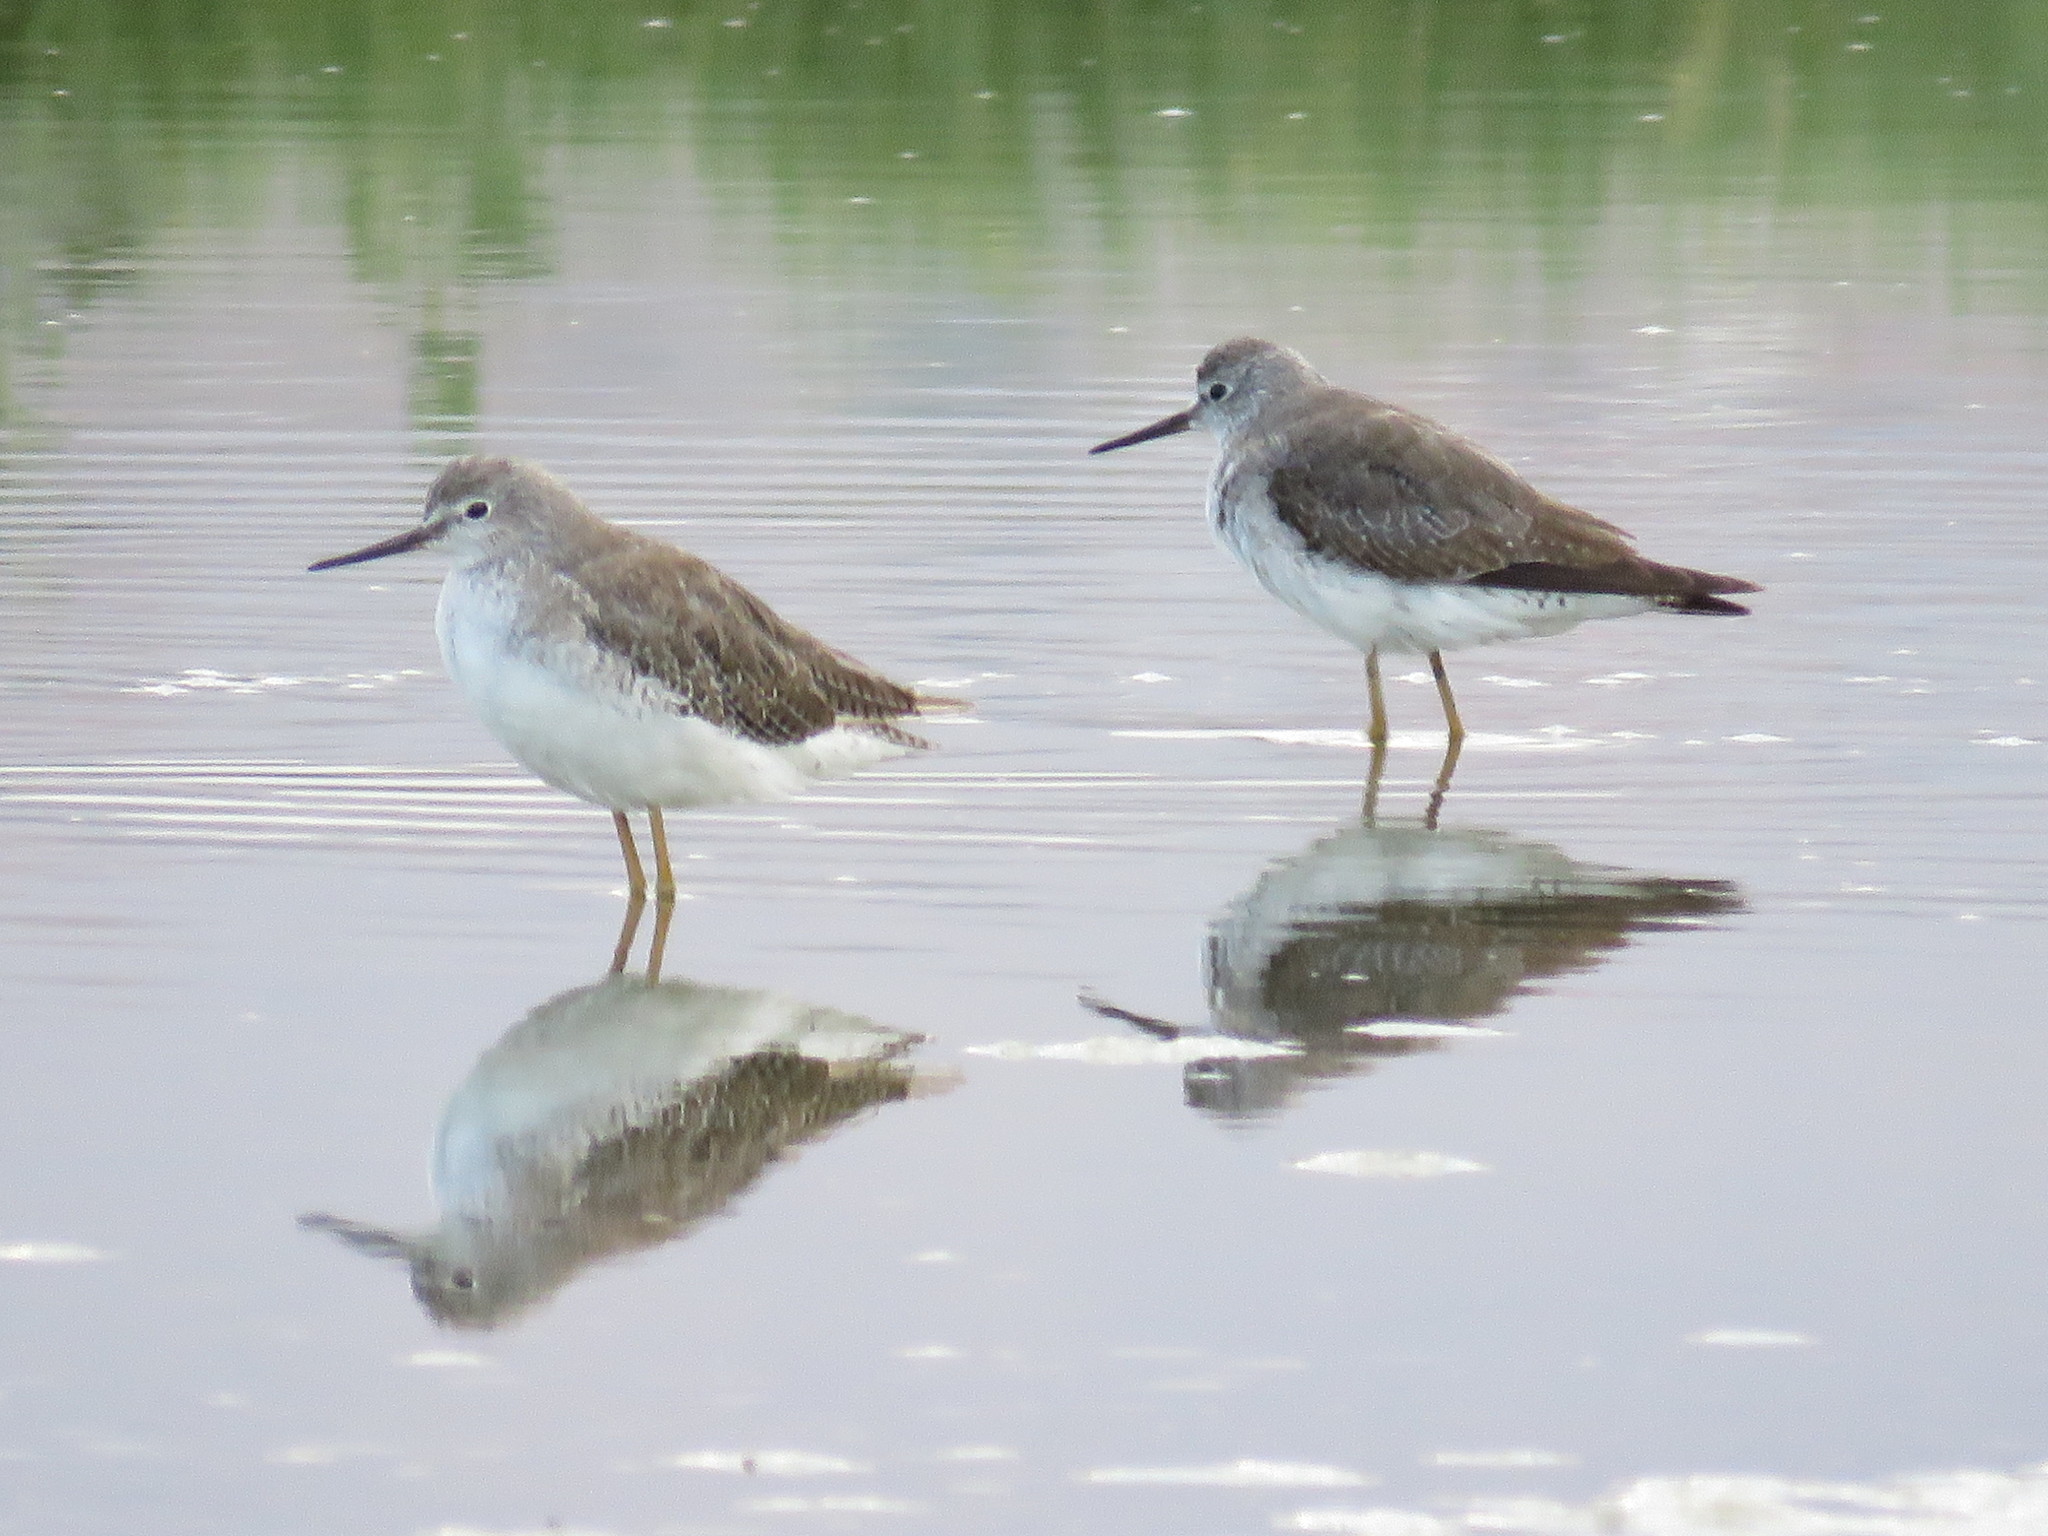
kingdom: Animalia
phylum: Chordata
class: Aves
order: Charadriiformes
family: Scolopacidae
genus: Tringa
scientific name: Tringa flavipes
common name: Lesser yellowlegs
